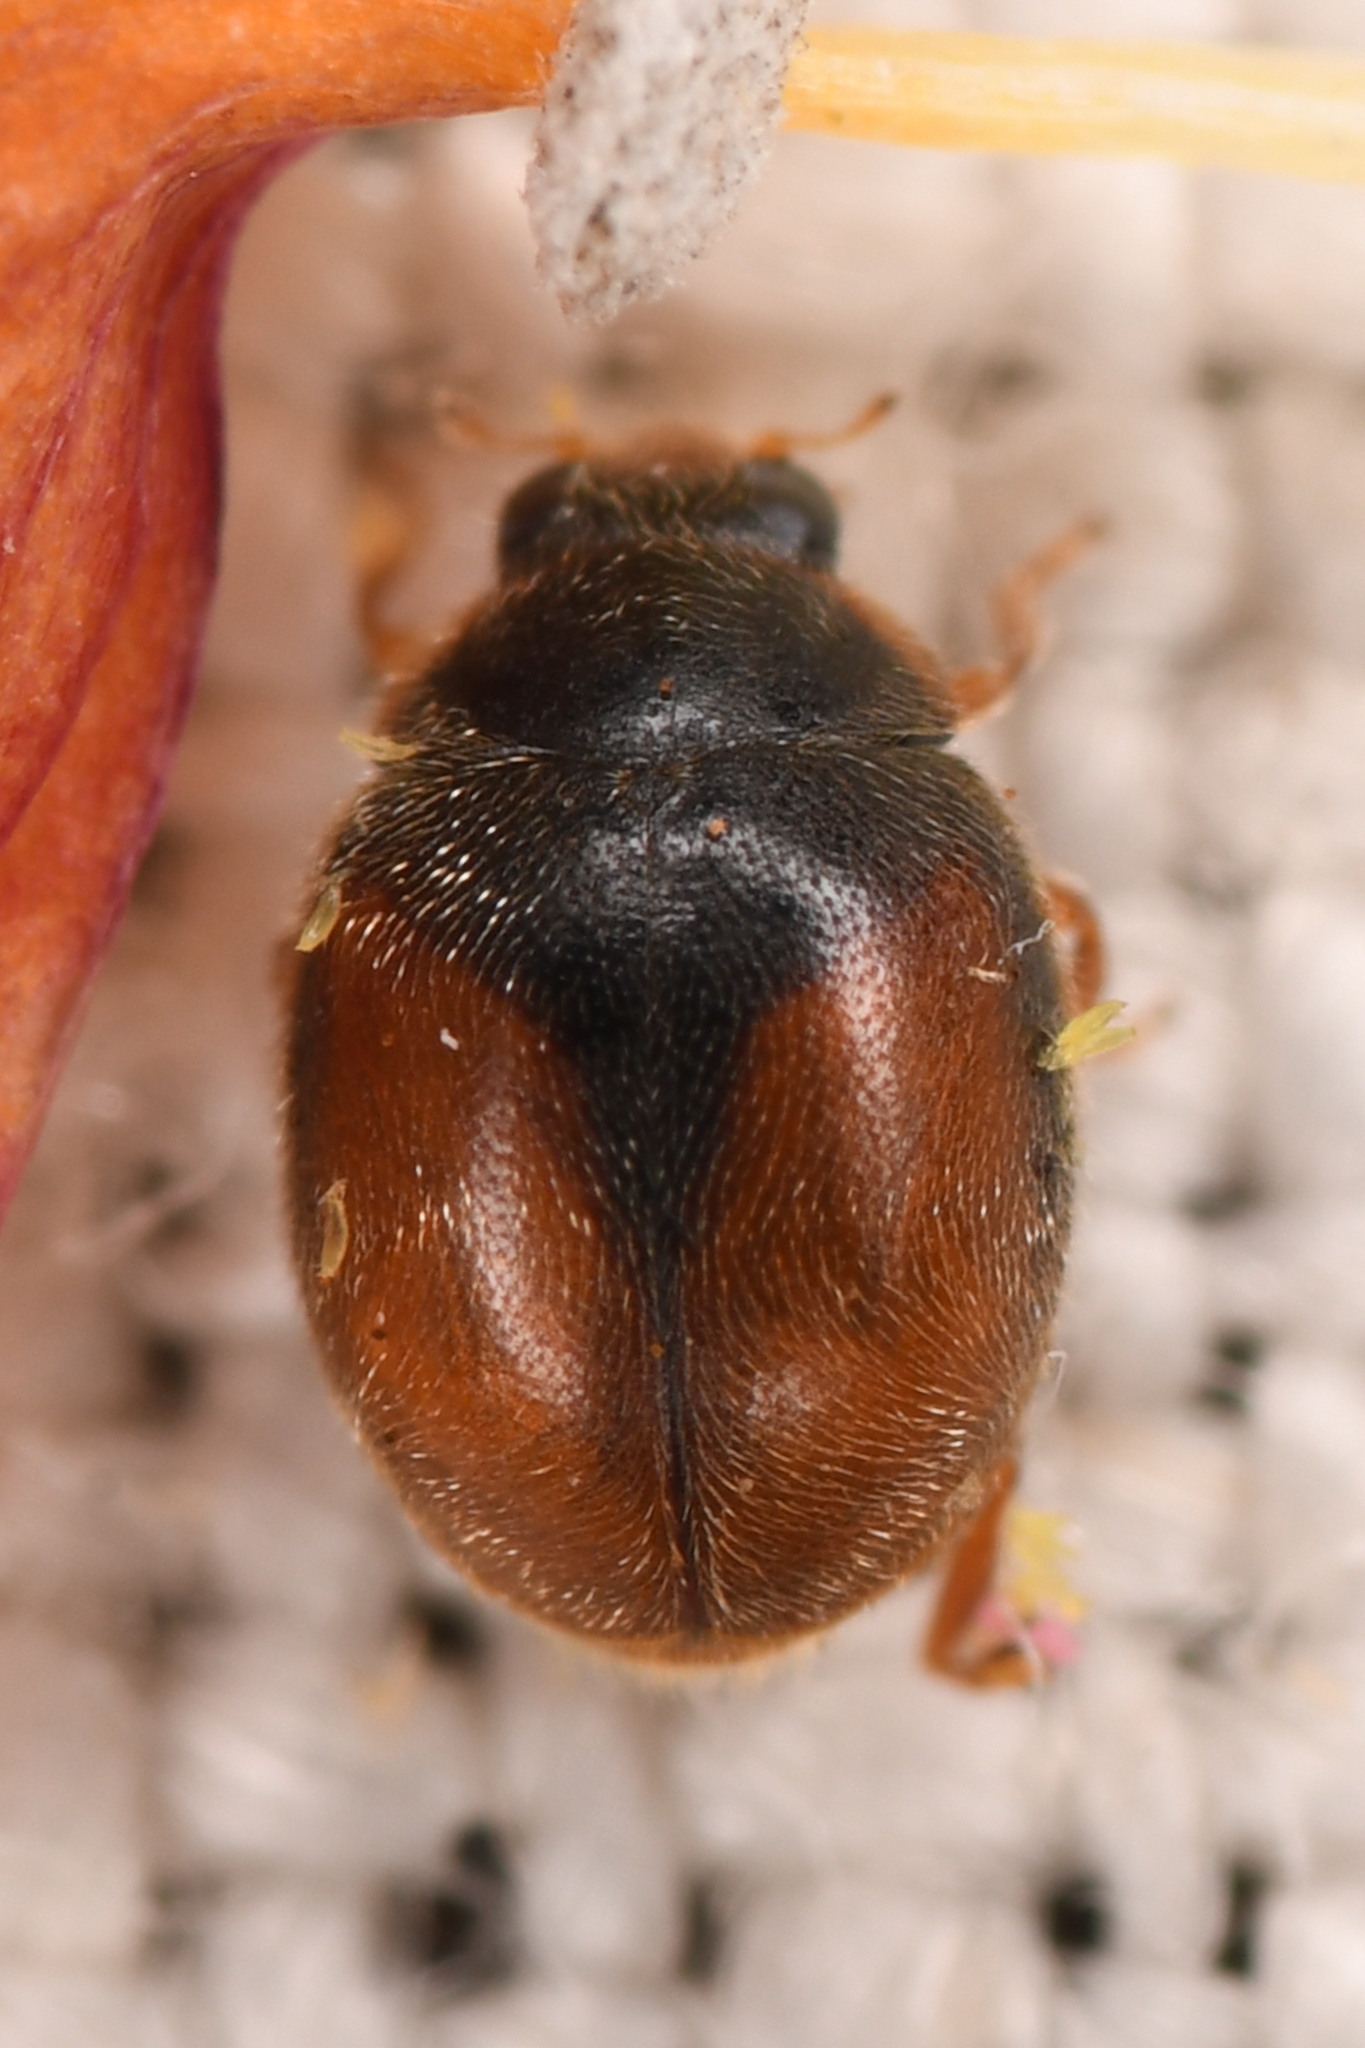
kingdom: Animalia
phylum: Arthropoda
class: Insecta
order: Coleoptera
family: Coccinellidae
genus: Scymnus
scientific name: Scymnus falli
